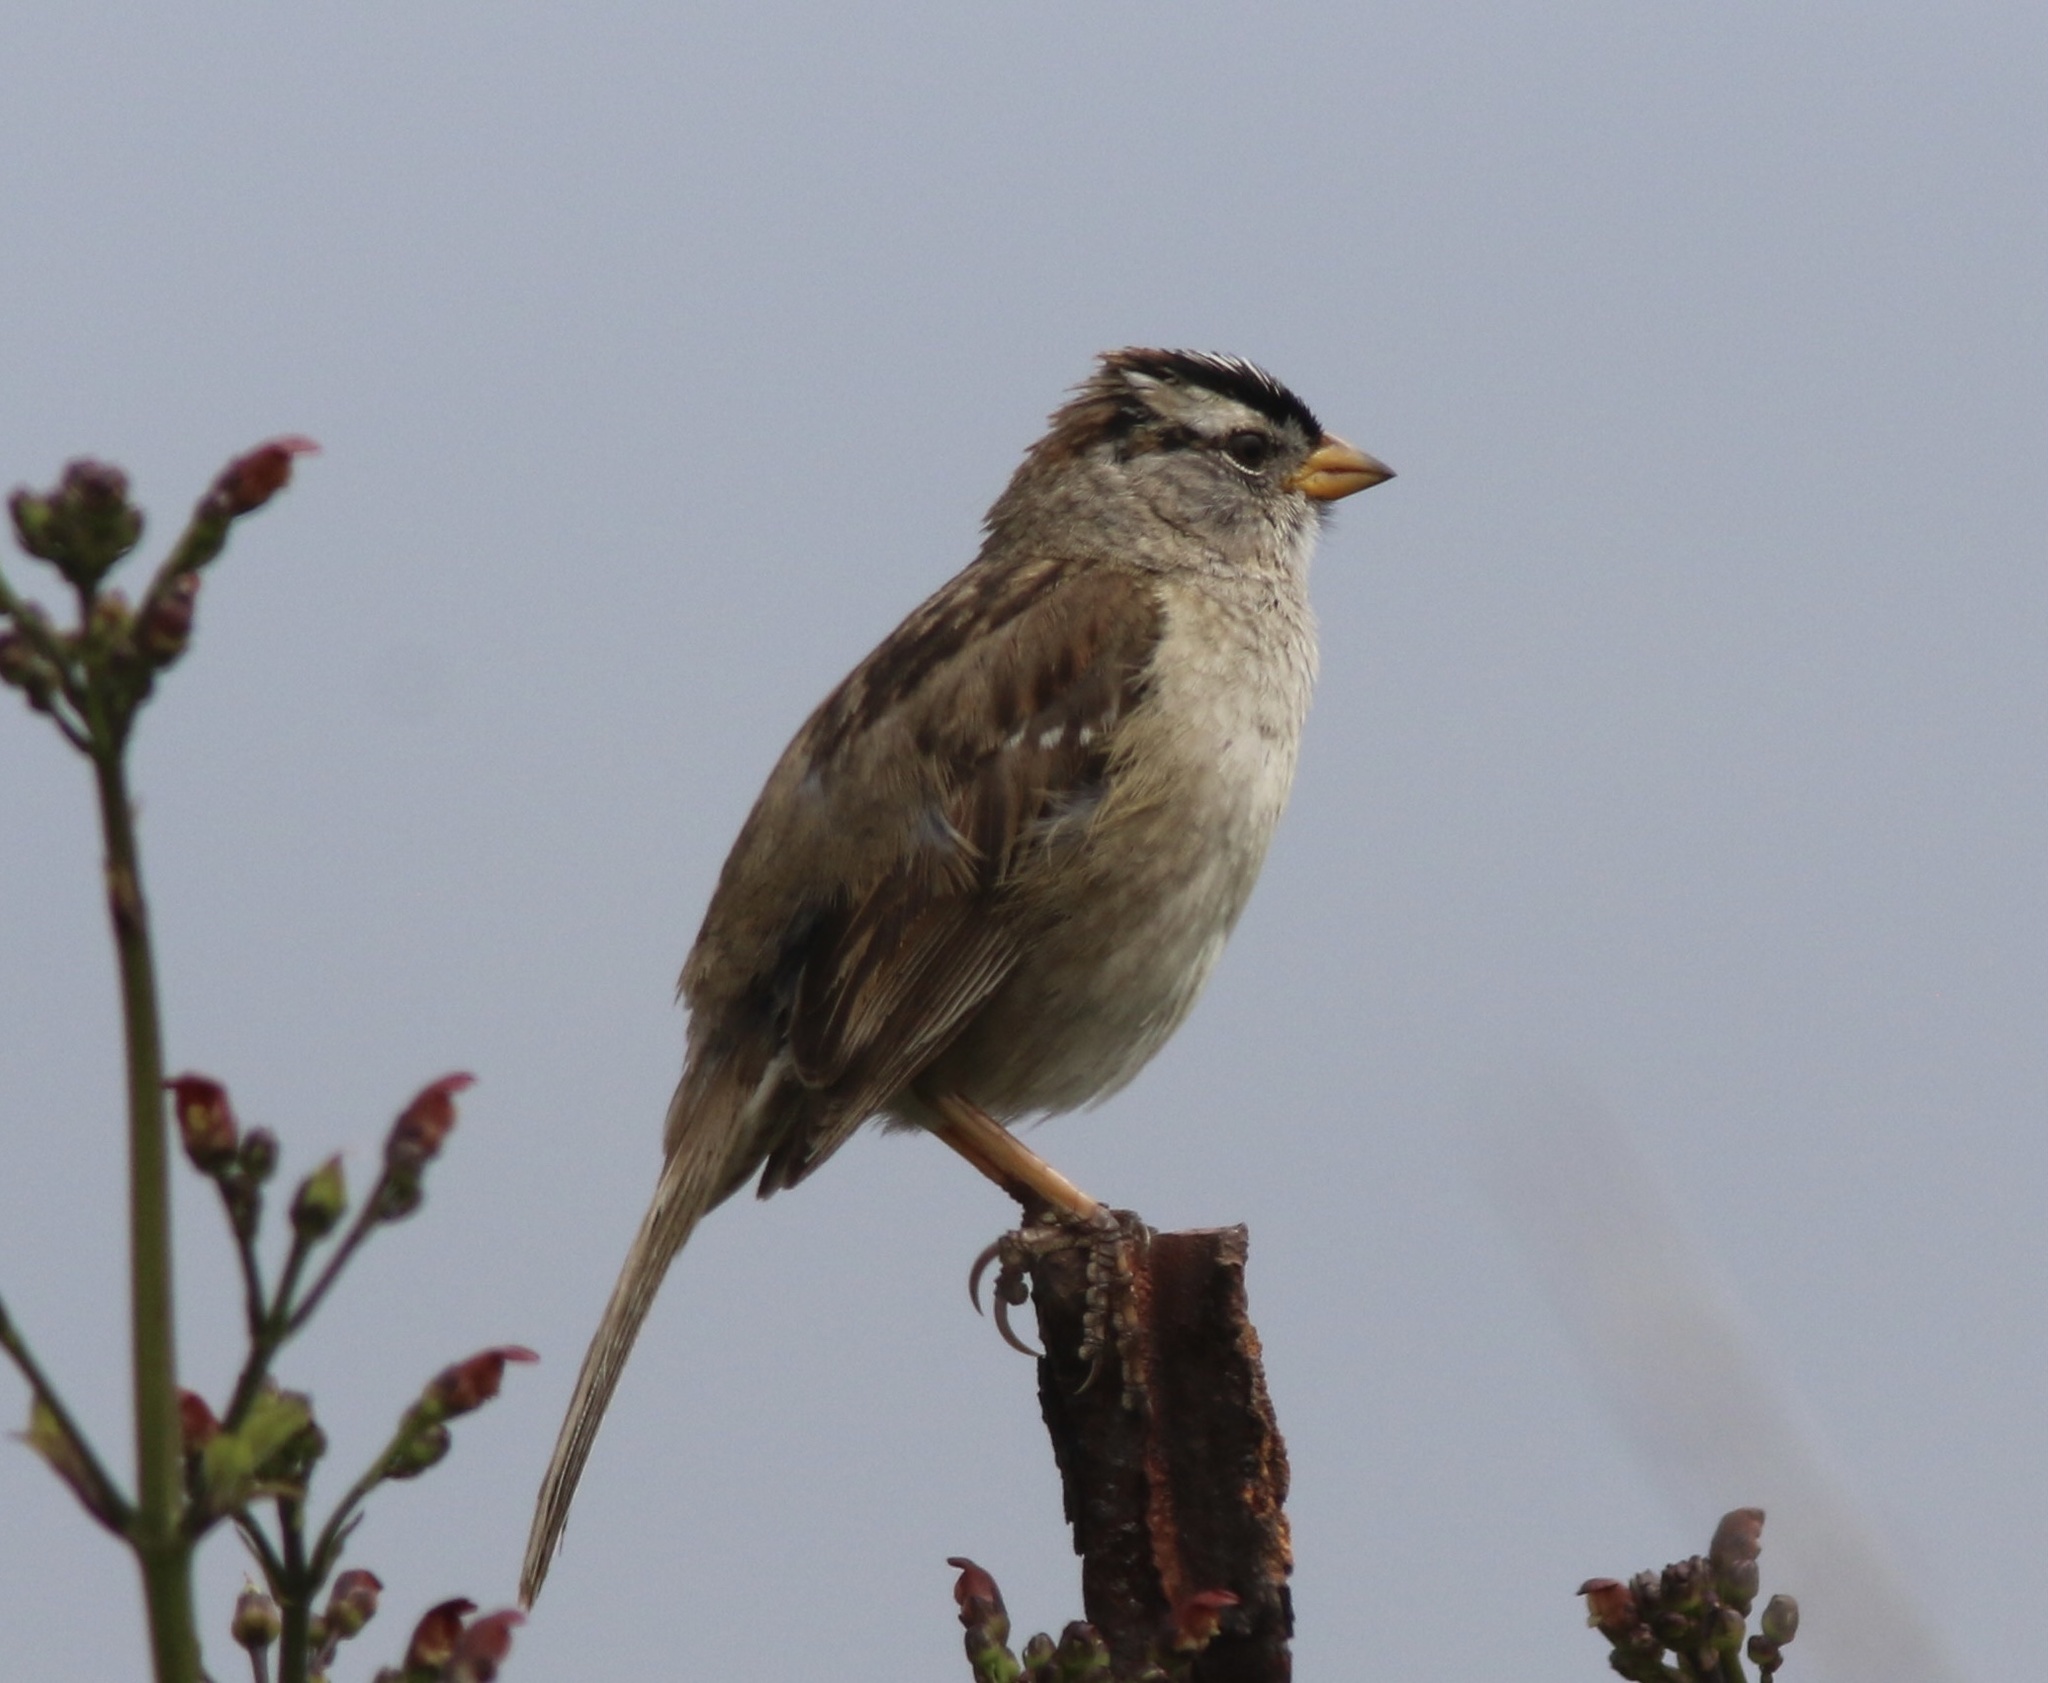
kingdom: Animalia
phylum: Chordata
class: Aves
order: Passeriformes
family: Passerellidae
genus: Zonotrichia
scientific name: Zonotrichia leucophrys
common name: White-crowned sparrow
